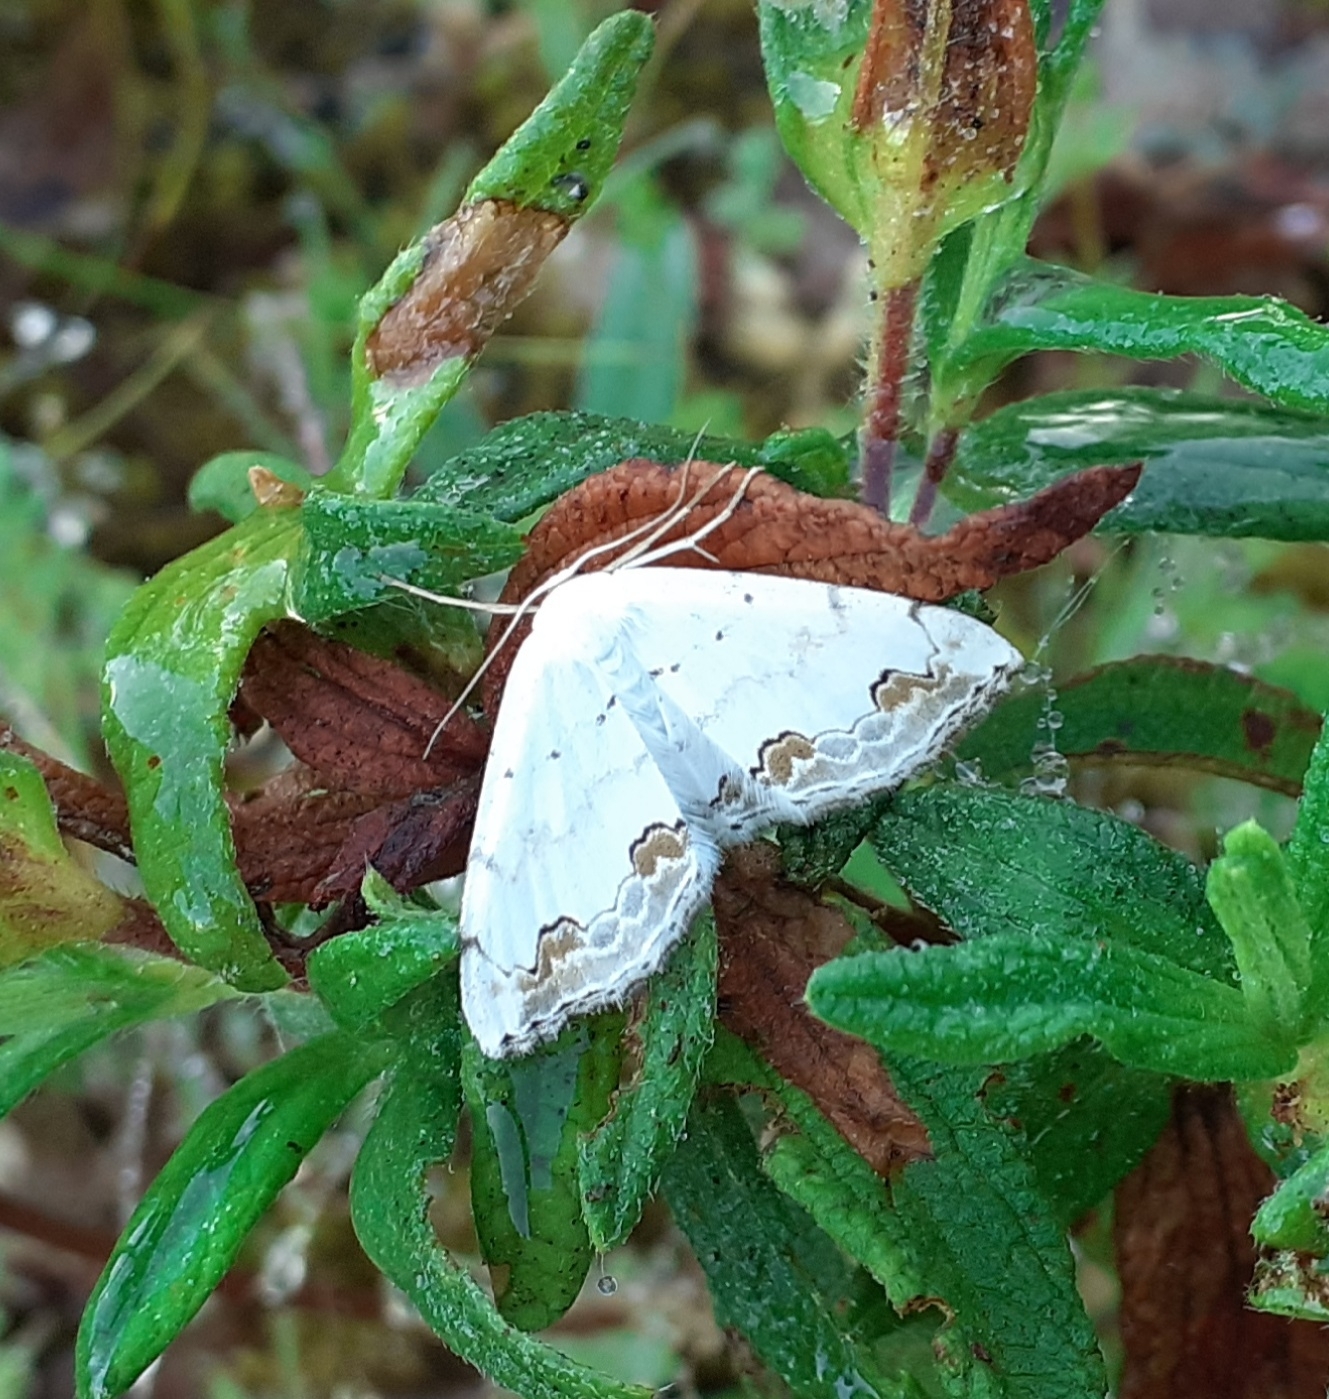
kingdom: Animalia
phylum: Arthropoda
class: Insecta
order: Lepidoptera
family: Geometridae
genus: Scopula
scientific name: Scopula ornata
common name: Lace border
